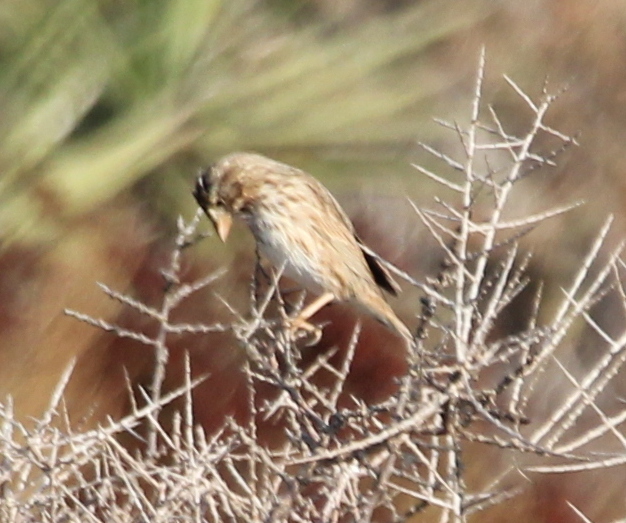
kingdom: Animalia
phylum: Chordata
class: Aves
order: Passeriformes
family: Passerellidae
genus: Passerculus
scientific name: Passerculus sandwichensis
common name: Savannah sparrow
